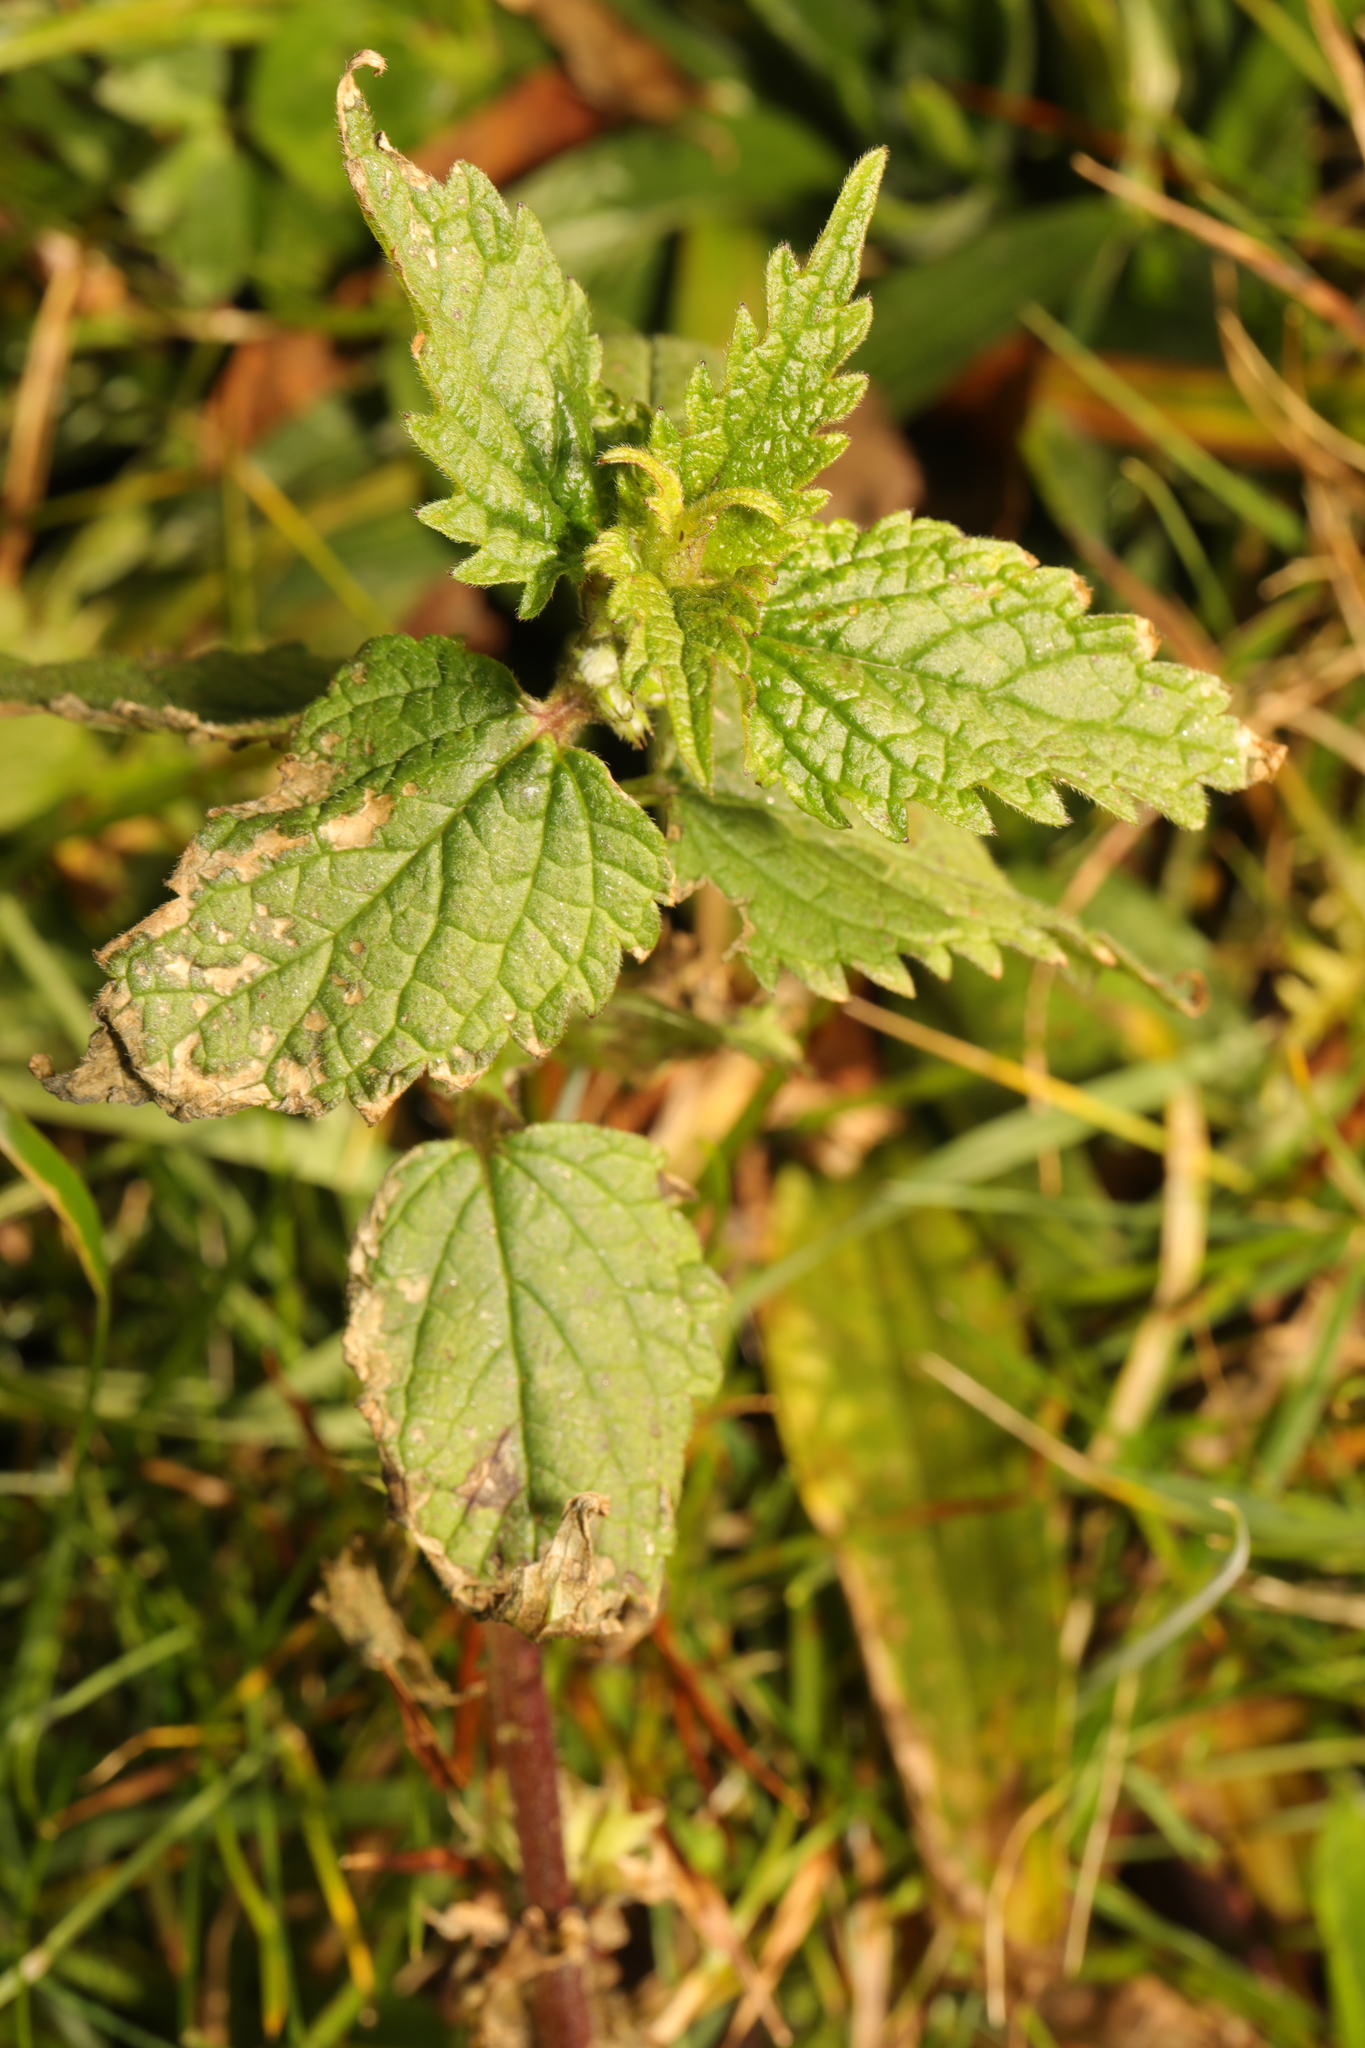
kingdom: Plantae
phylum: Tracheophyta
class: Magnoliopsida
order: Lamiales
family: Lamiaceae
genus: Lamium
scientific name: Lamium album
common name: White dead-nettle
